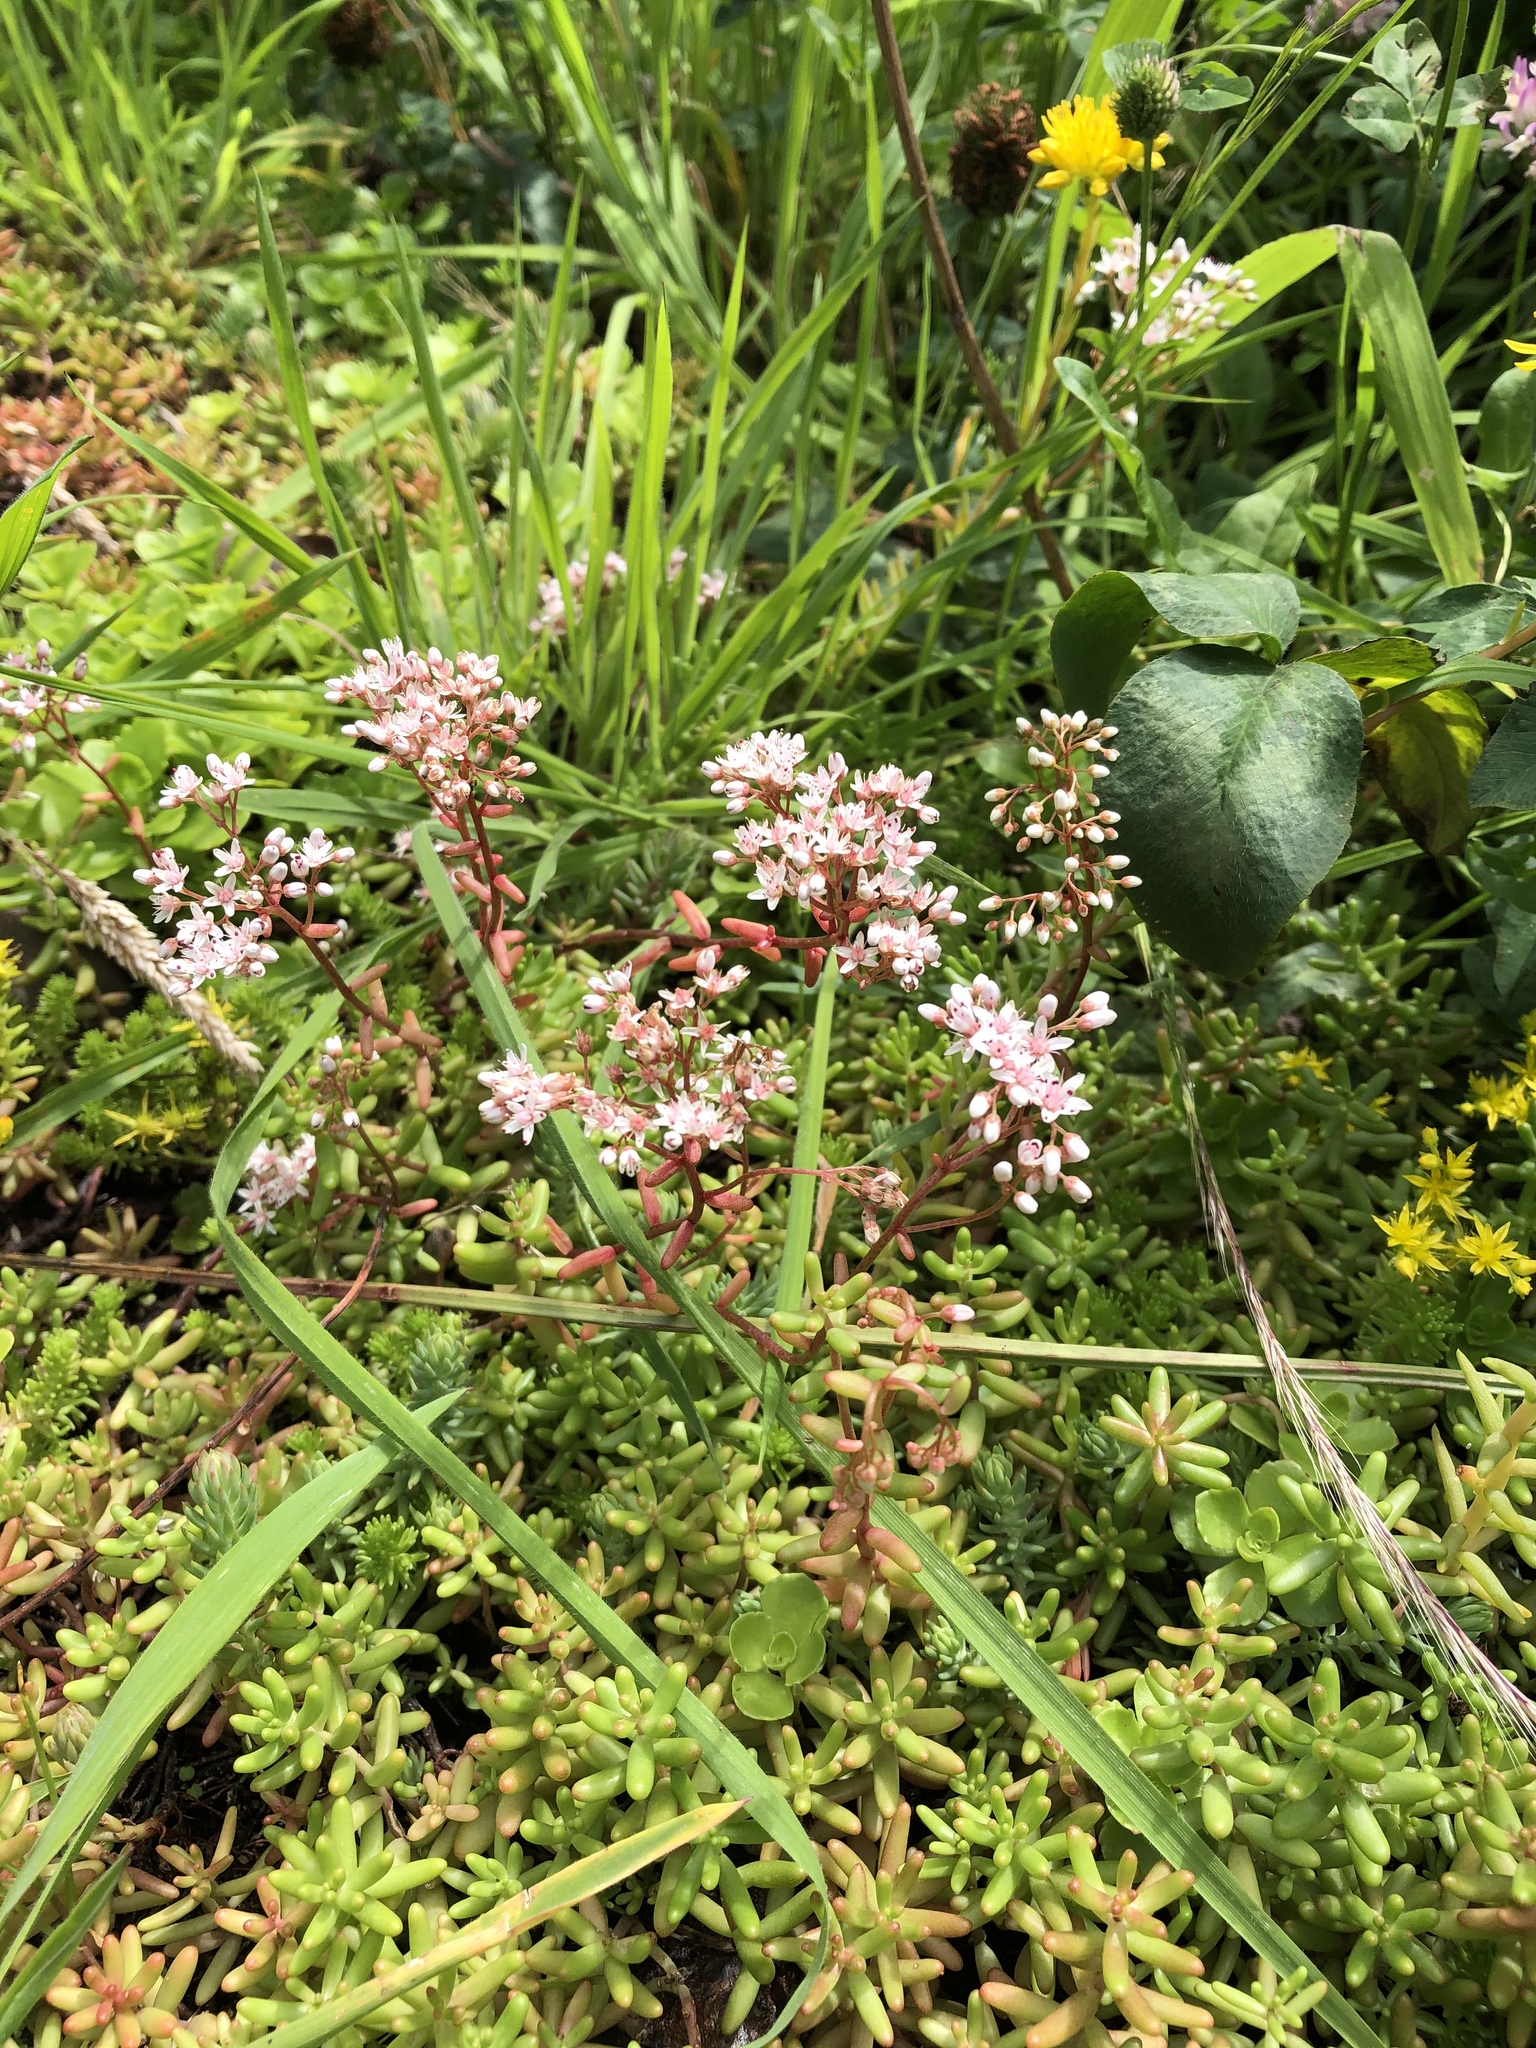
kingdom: Plantae
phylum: Tracheophyta
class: Magnoliopsida
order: Saxifragales
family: Crassulaceae
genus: Sedum
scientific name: Sedum album
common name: White stonecrop
